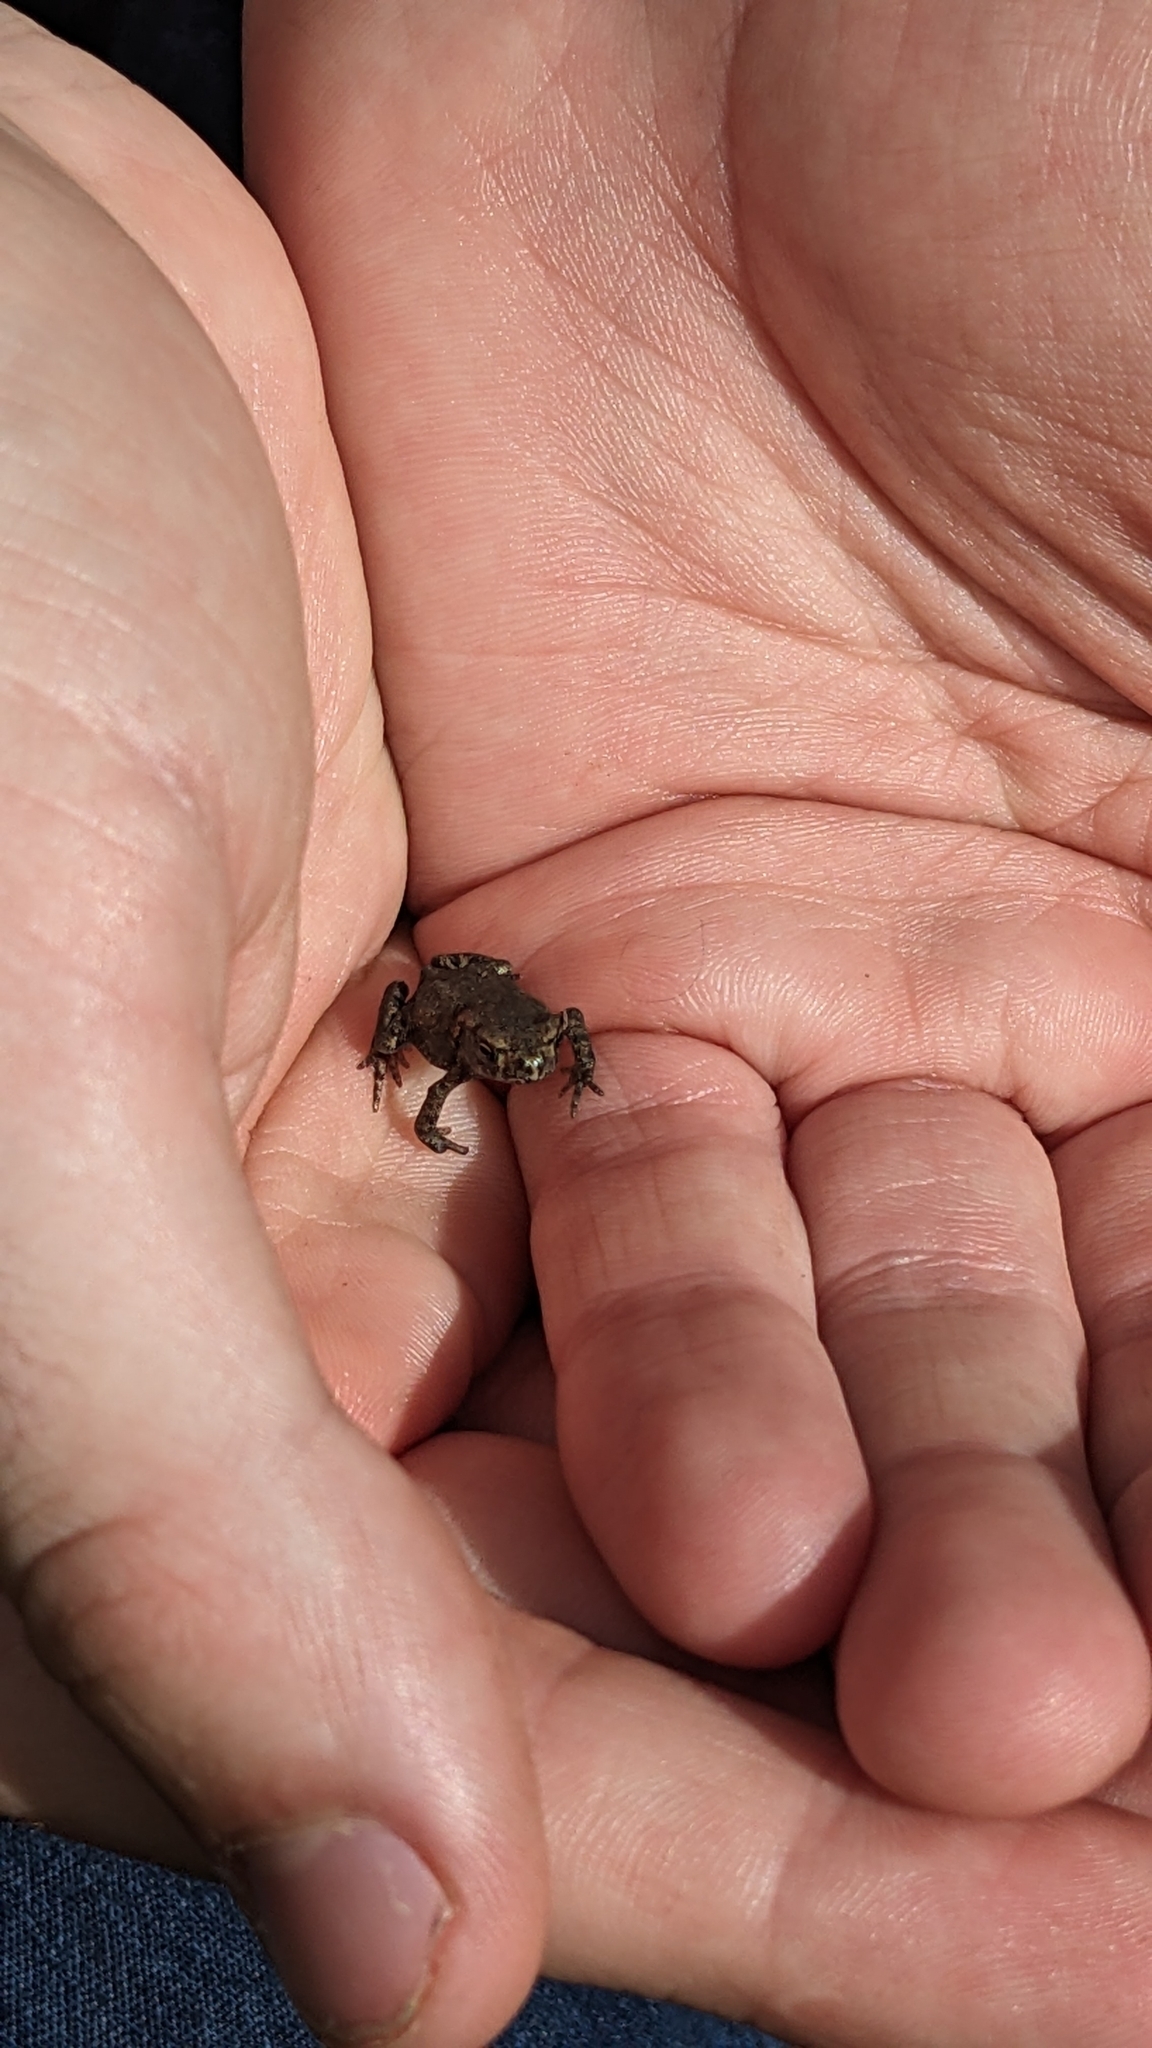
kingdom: Animalia
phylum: Chordata
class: Amphibia
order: Anura
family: Bufonidae
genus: Bufo
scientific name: Bufo bufo
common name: Common toad
